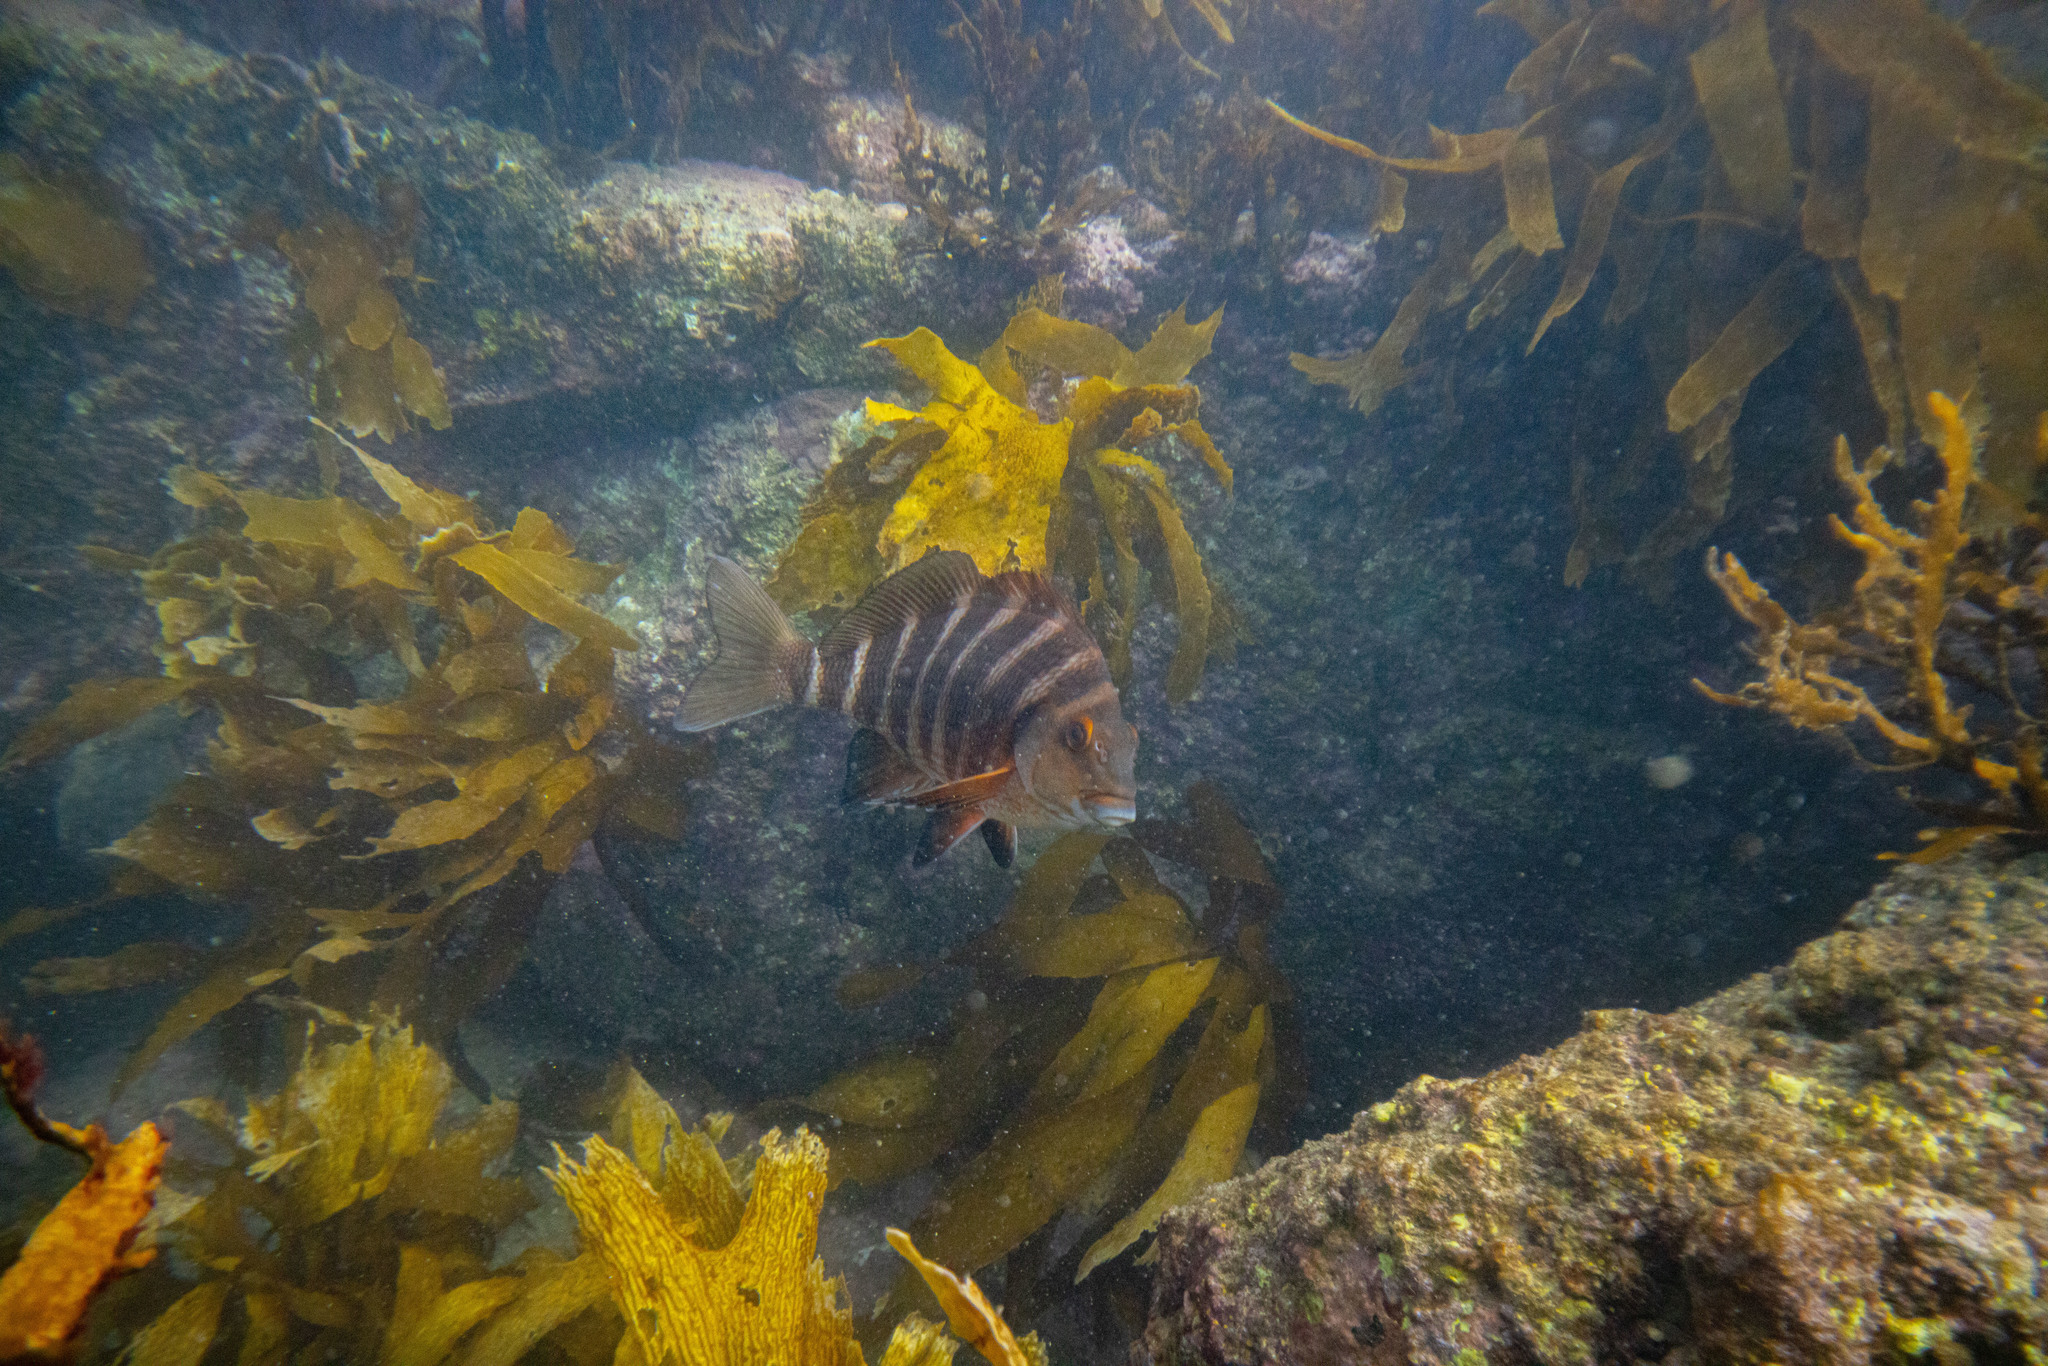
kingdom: Animalia
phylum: Chordata
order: Perciformes
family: Cheilodactylidae
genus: Cheilodactylus
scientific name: Cheilodactylus spectabilis
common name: Red moki
